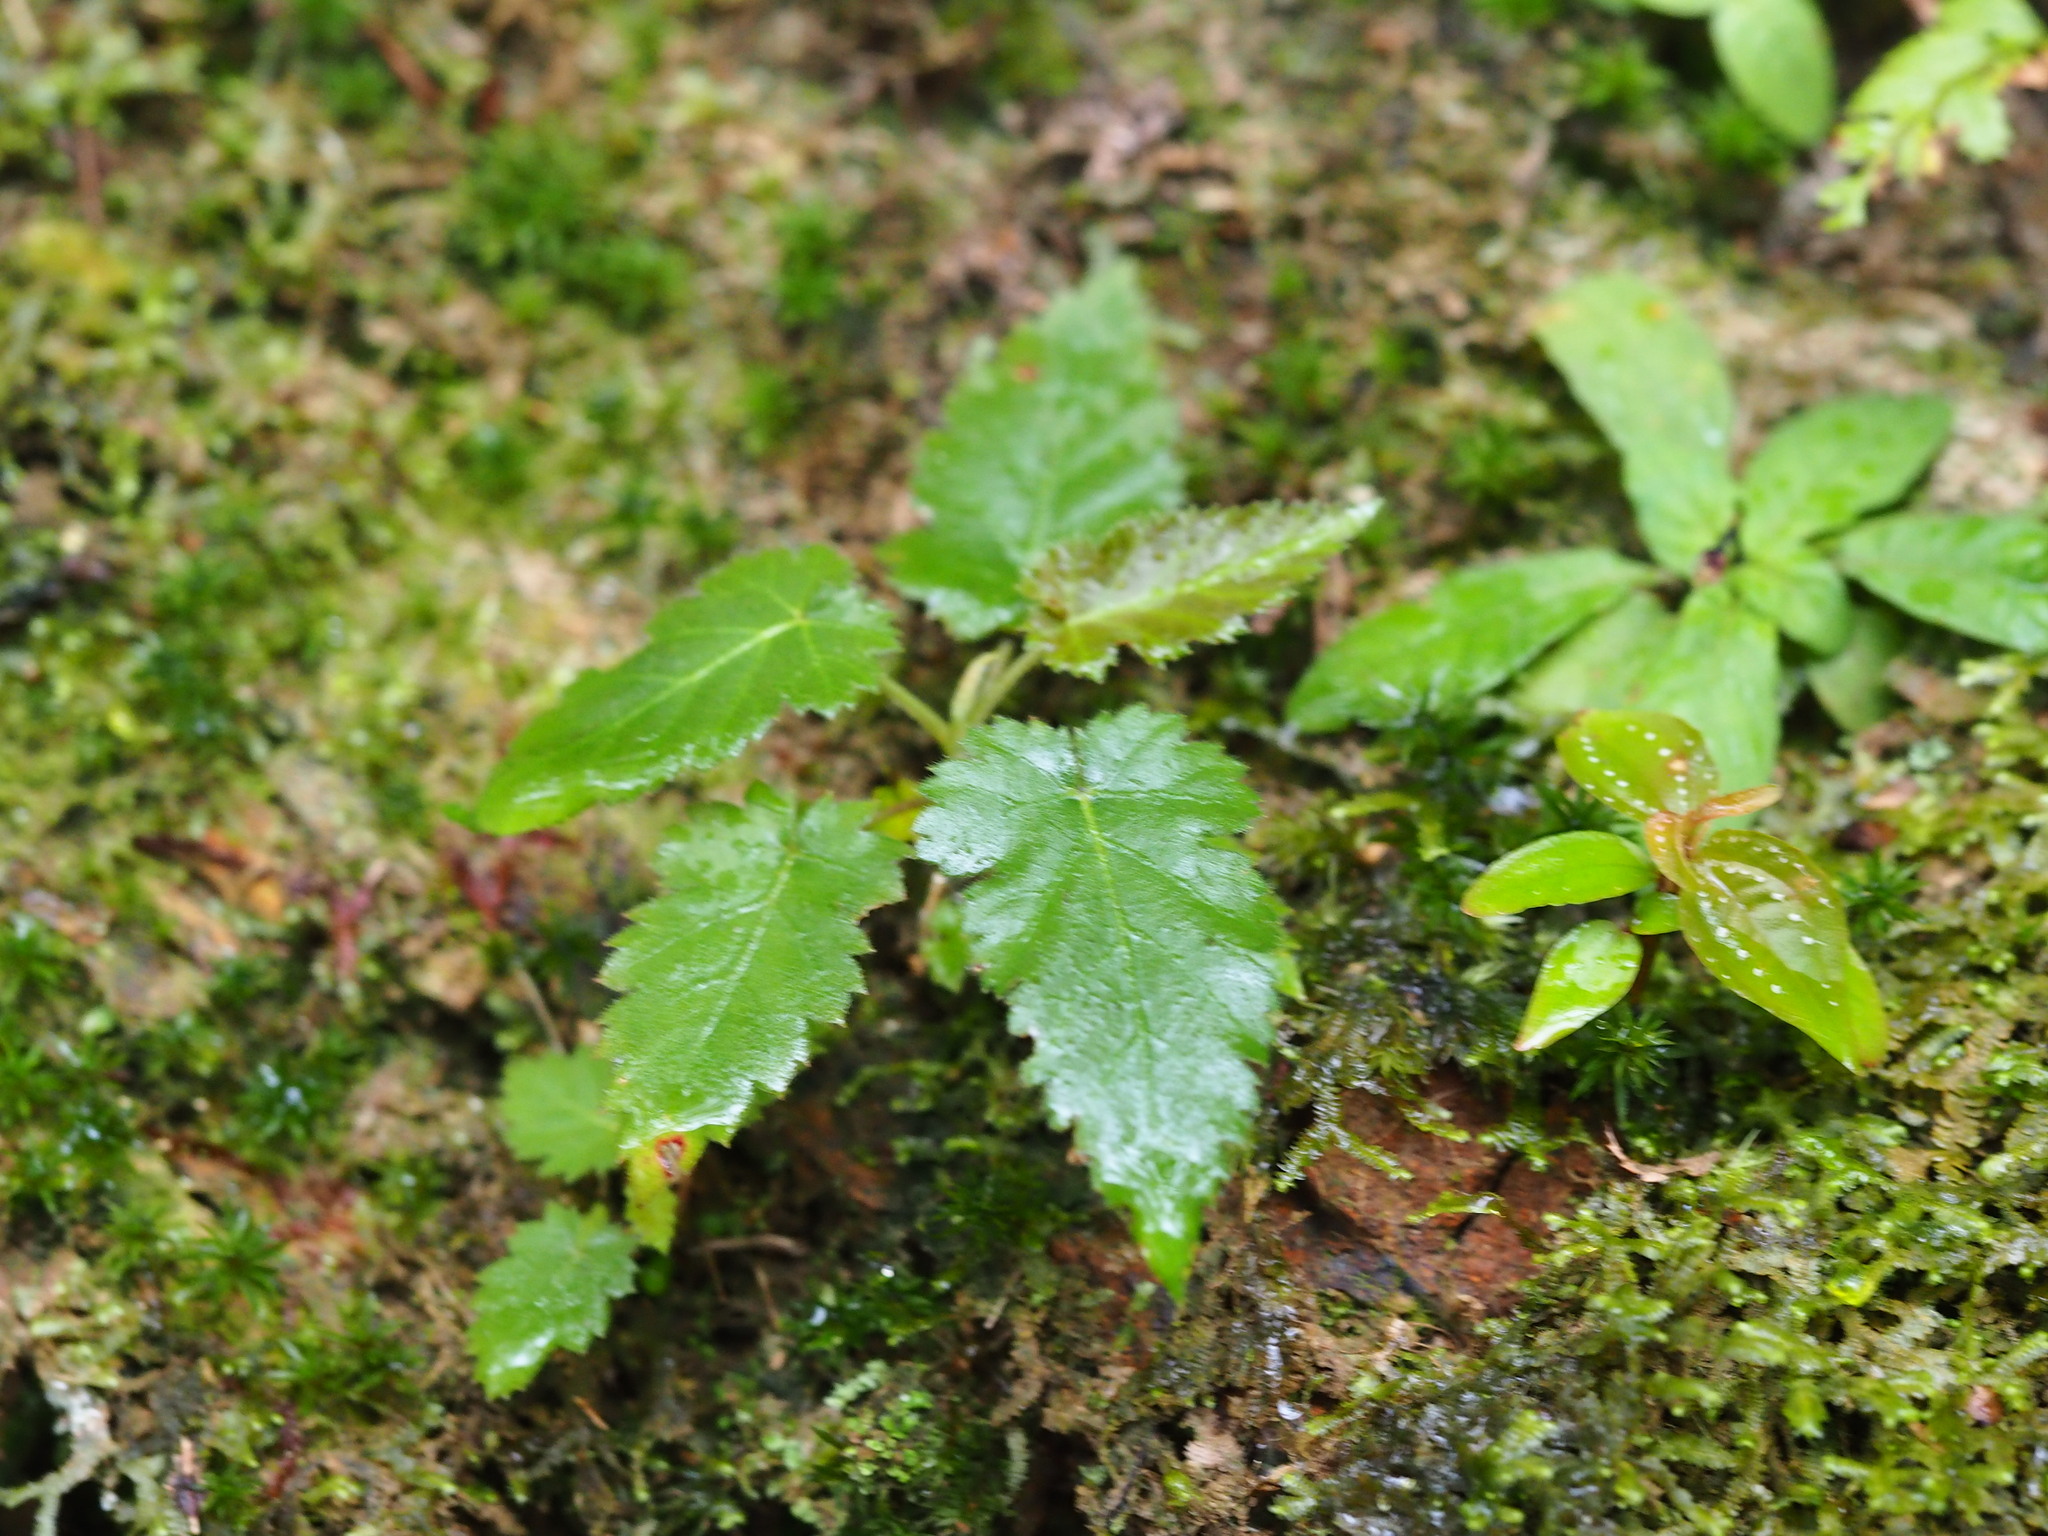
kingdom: Plantae
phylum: Tracheophyta
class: Magnoliopsida
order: Rosales
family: Rosaceae
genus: Rubus
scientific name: Rubus corchorifolius
